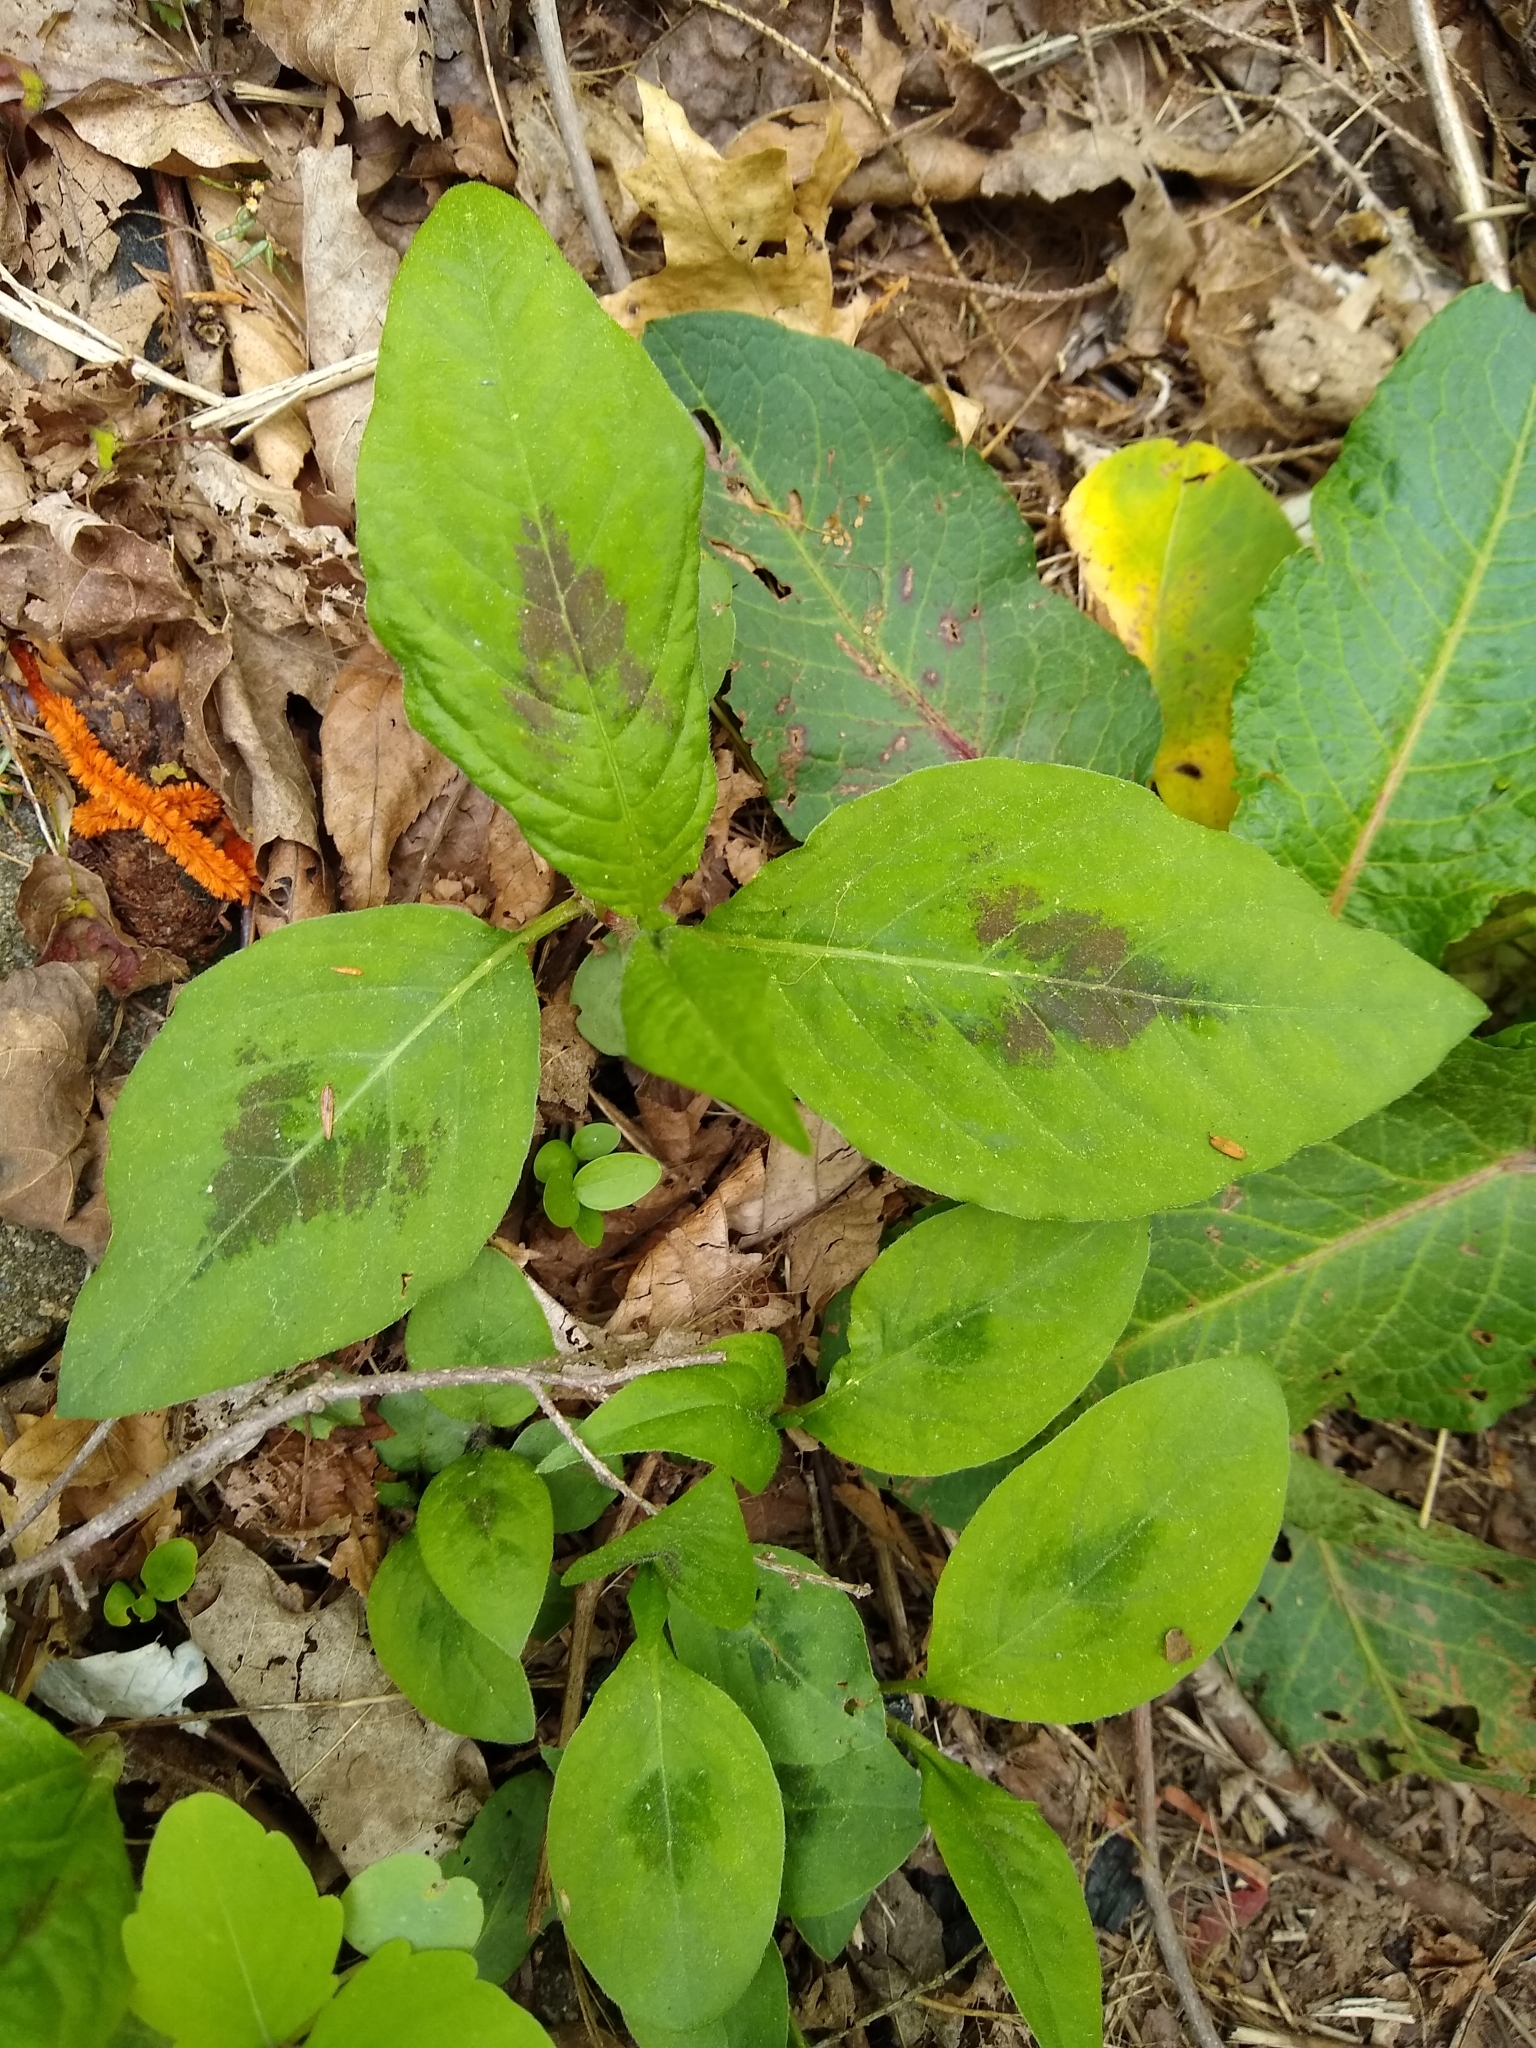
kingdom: Plantae
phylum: Tracheophyta
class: Magnoliopsida
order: Caryophyllales
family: Polygonaceae
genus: Persicaria
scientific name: Persicaria virginiana
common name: Jumpseed
